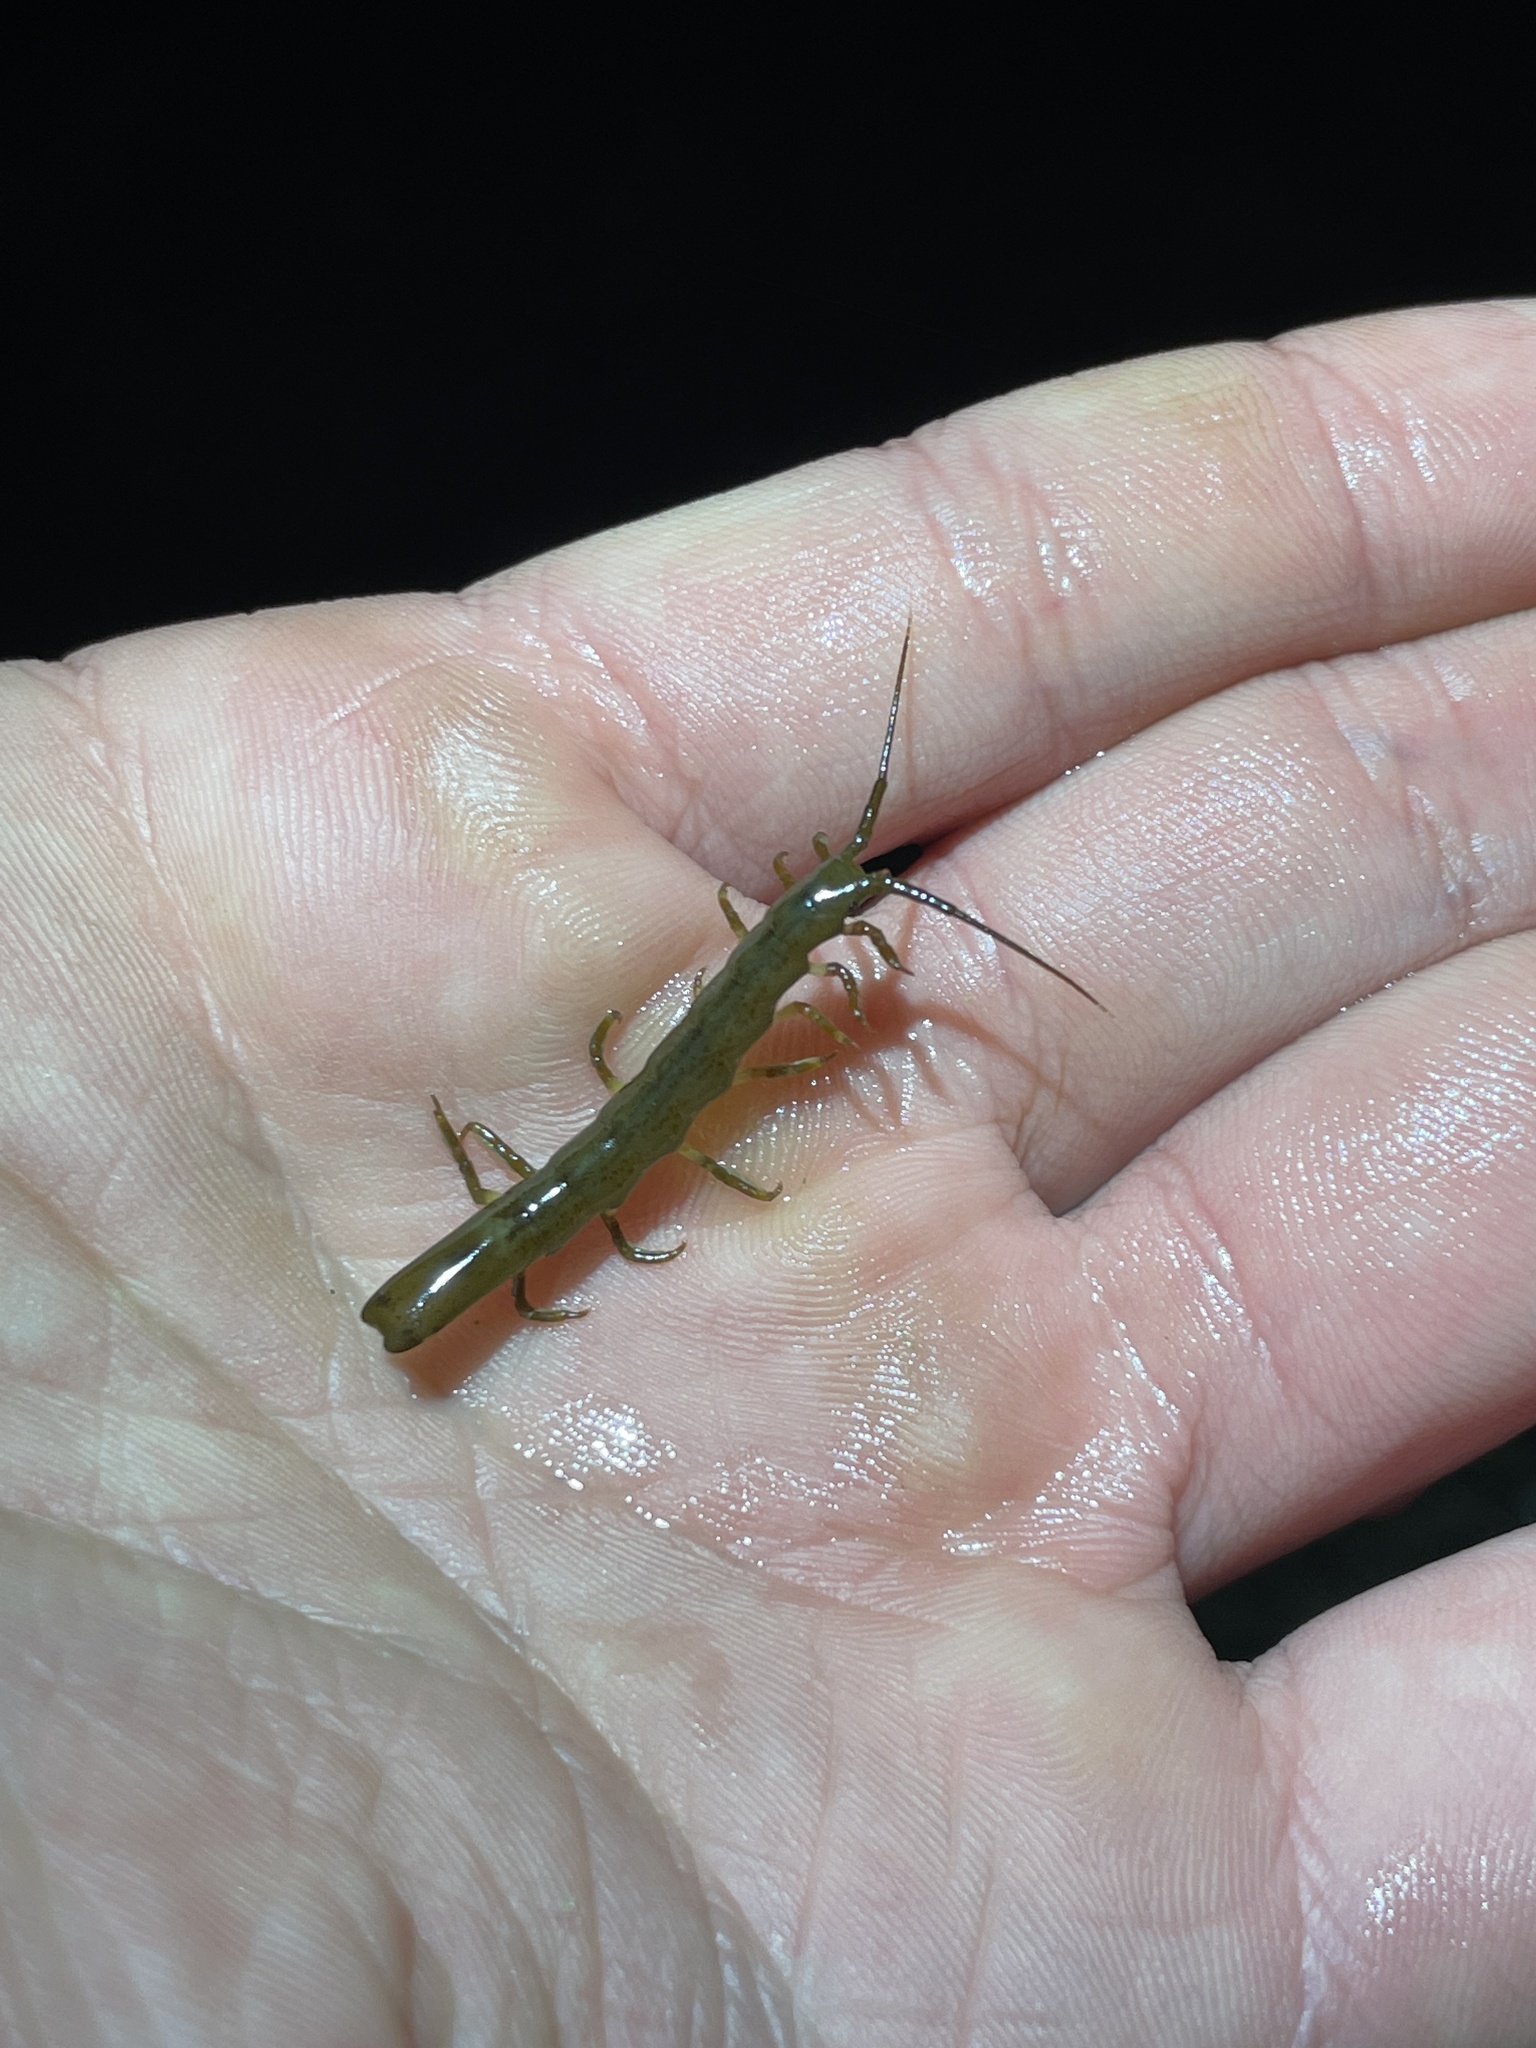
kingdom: Animalia
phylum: Arthropoda
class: Malacostraca
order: Isopoda
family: Idoteidae
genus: Batedotea
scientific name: Batedotea elongata
